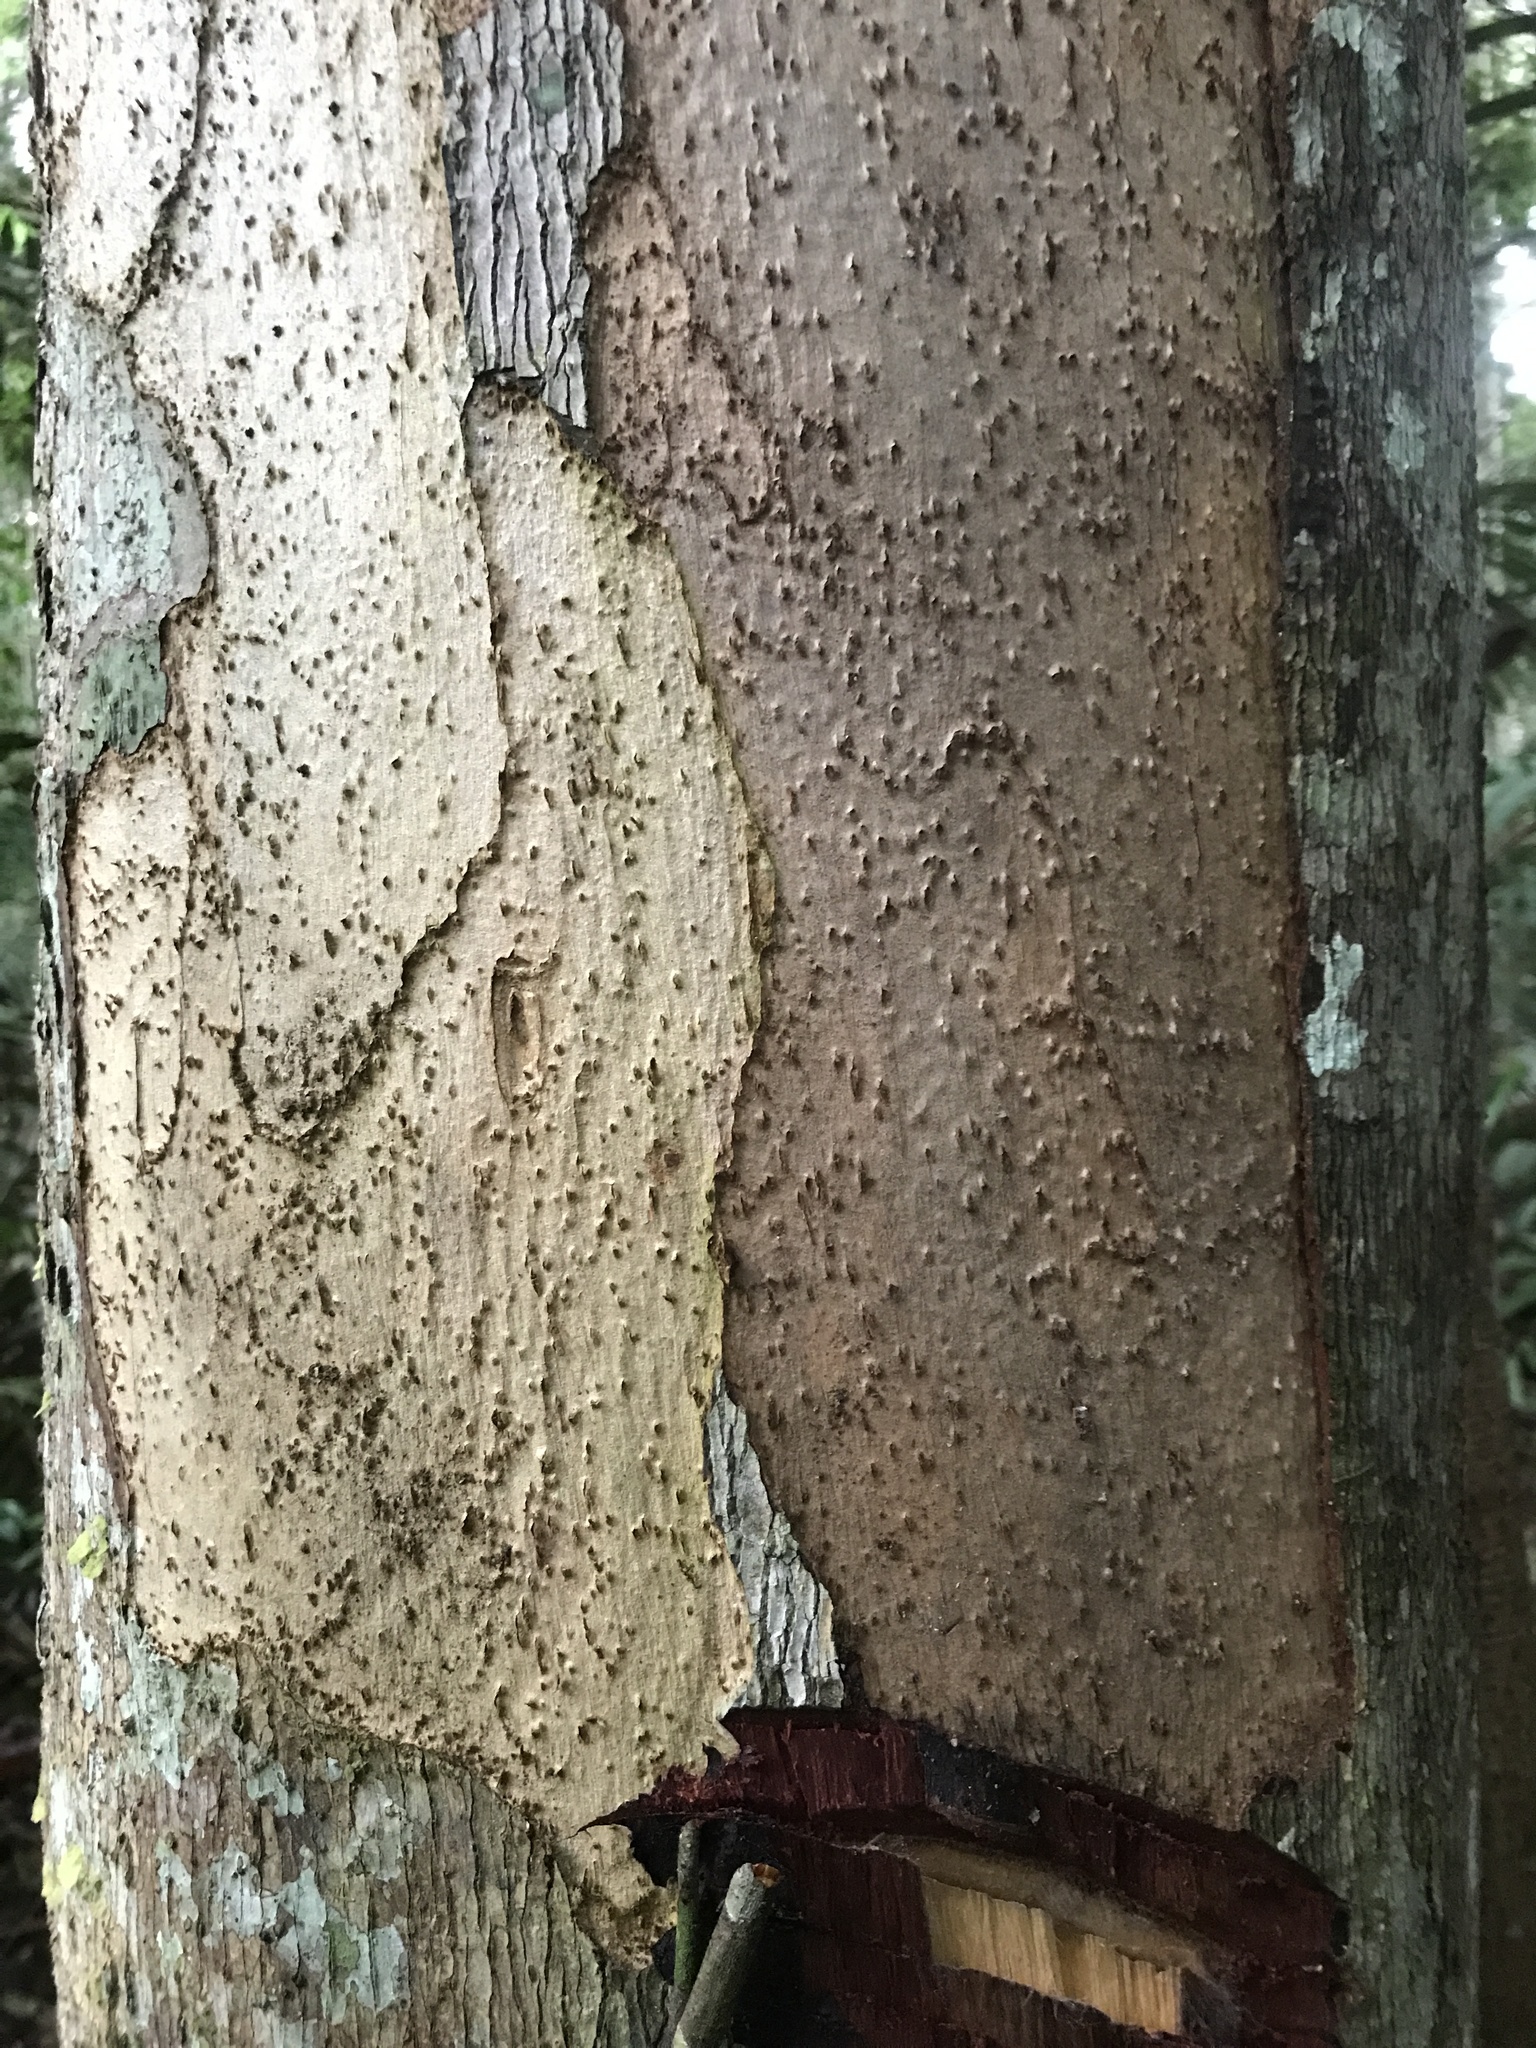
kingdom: Plantae
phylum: Tracheophyta
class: Magnoliopsida
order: Malvales
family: Malvaceae
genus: Theobroma
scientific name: Theobroma subincanum
